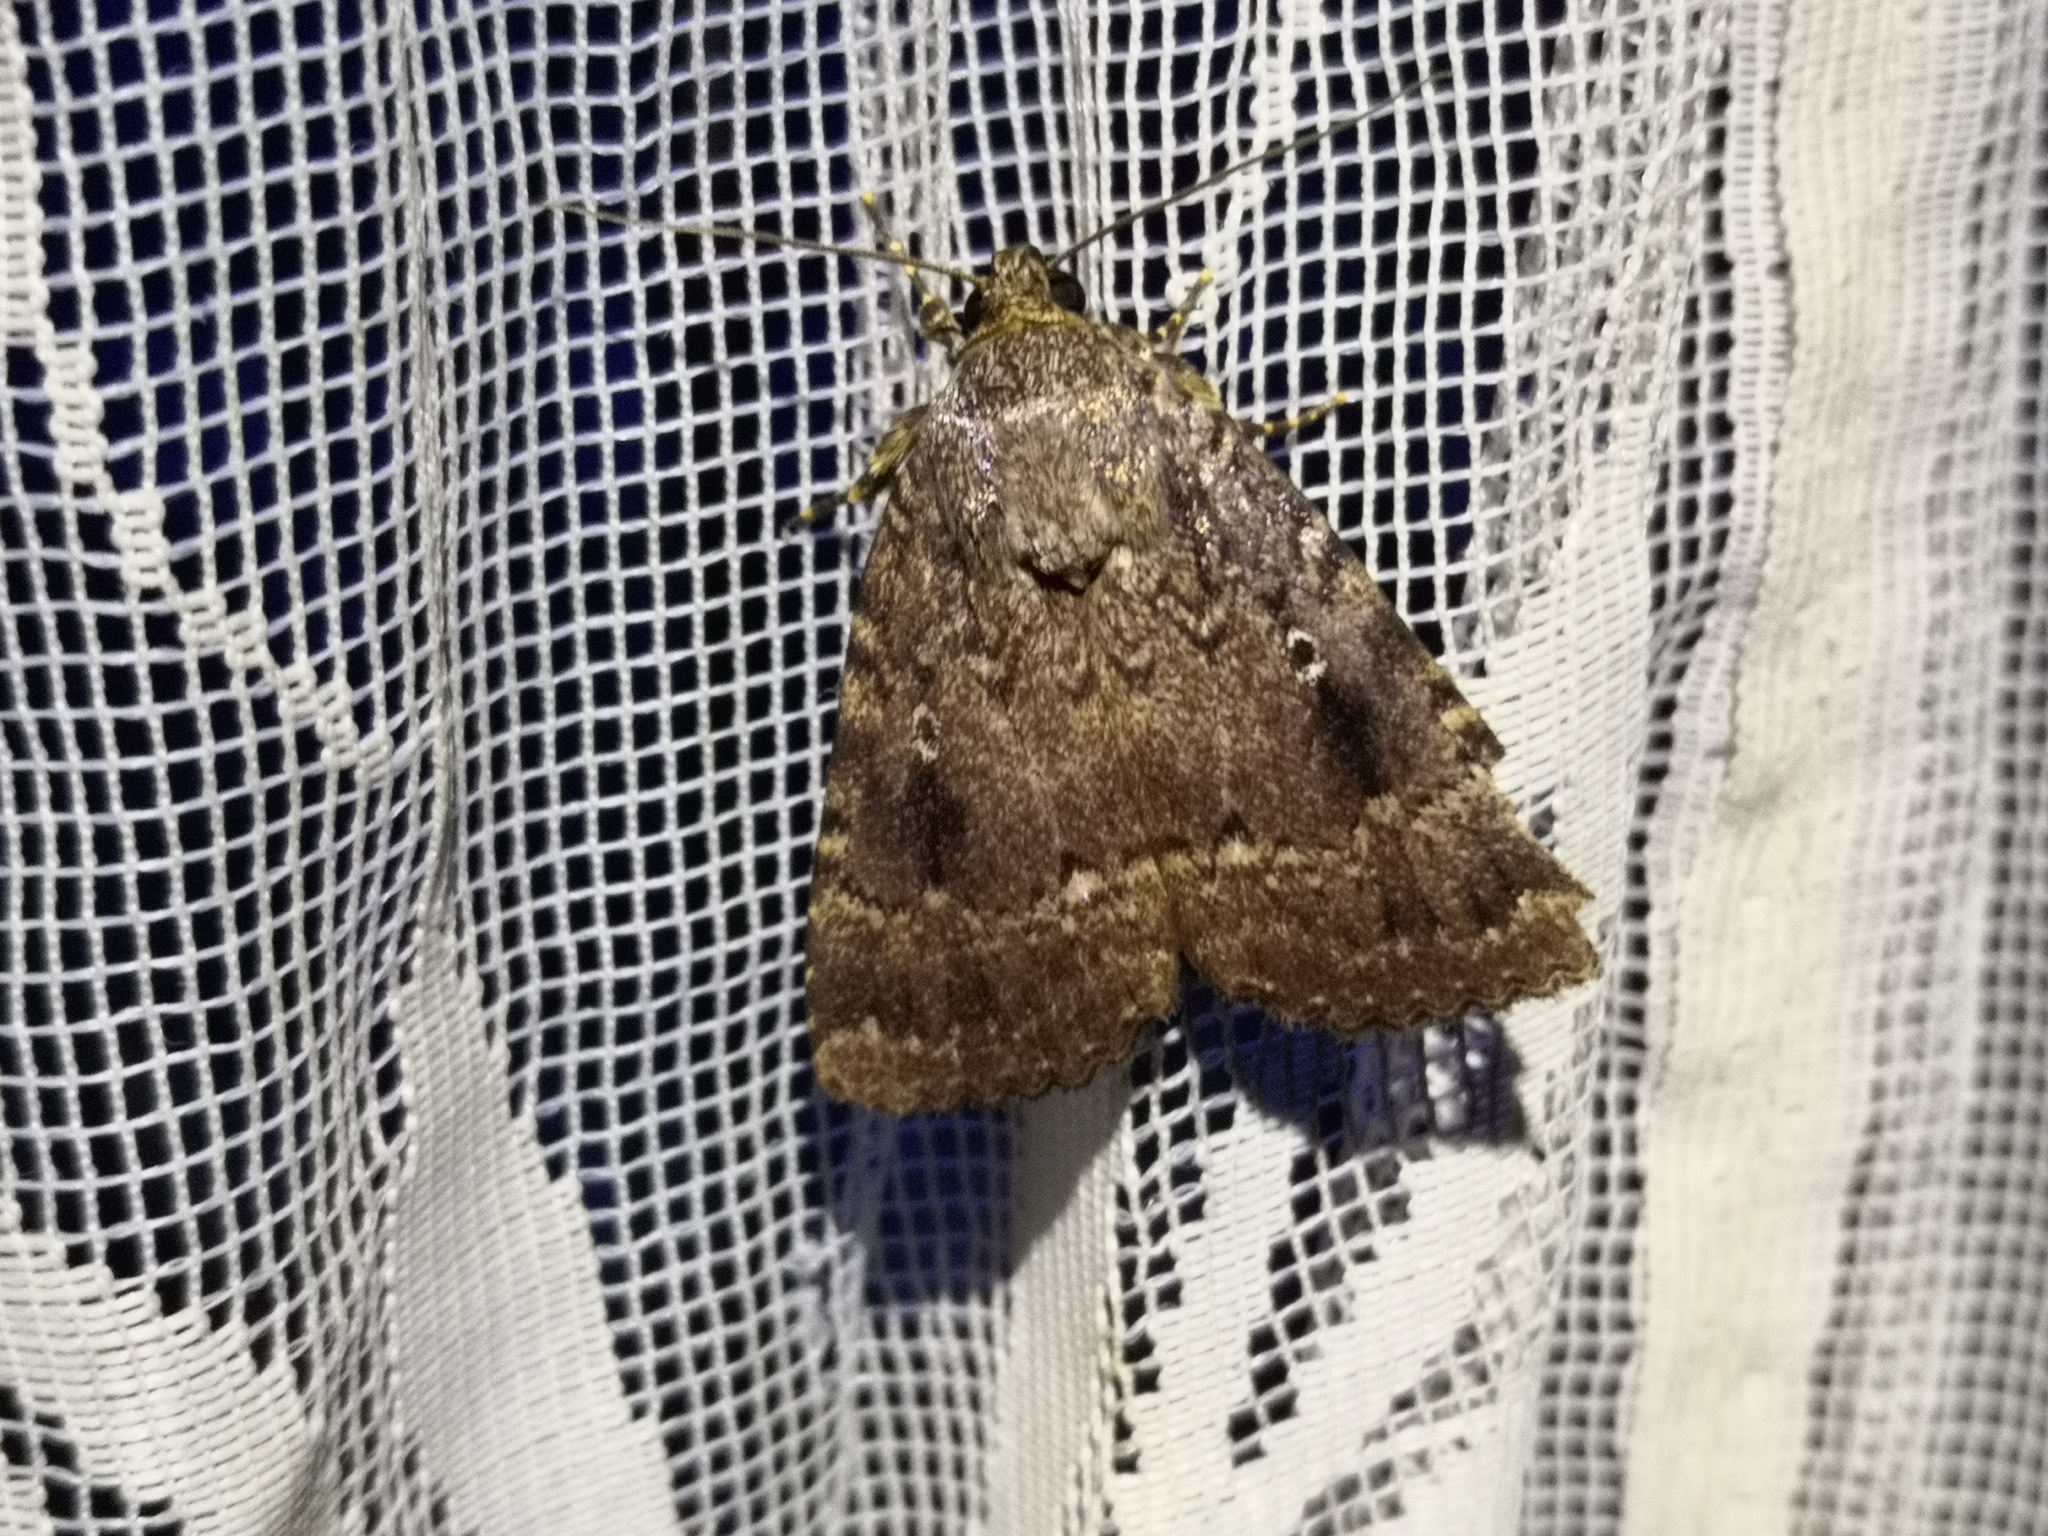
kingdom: Animalia
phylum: Arthropoda
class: Insecta
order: Lepidoptera
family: Noctuidae
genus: Amphipyra
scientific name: Amphipyra pyramidea
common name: Copper underwing
